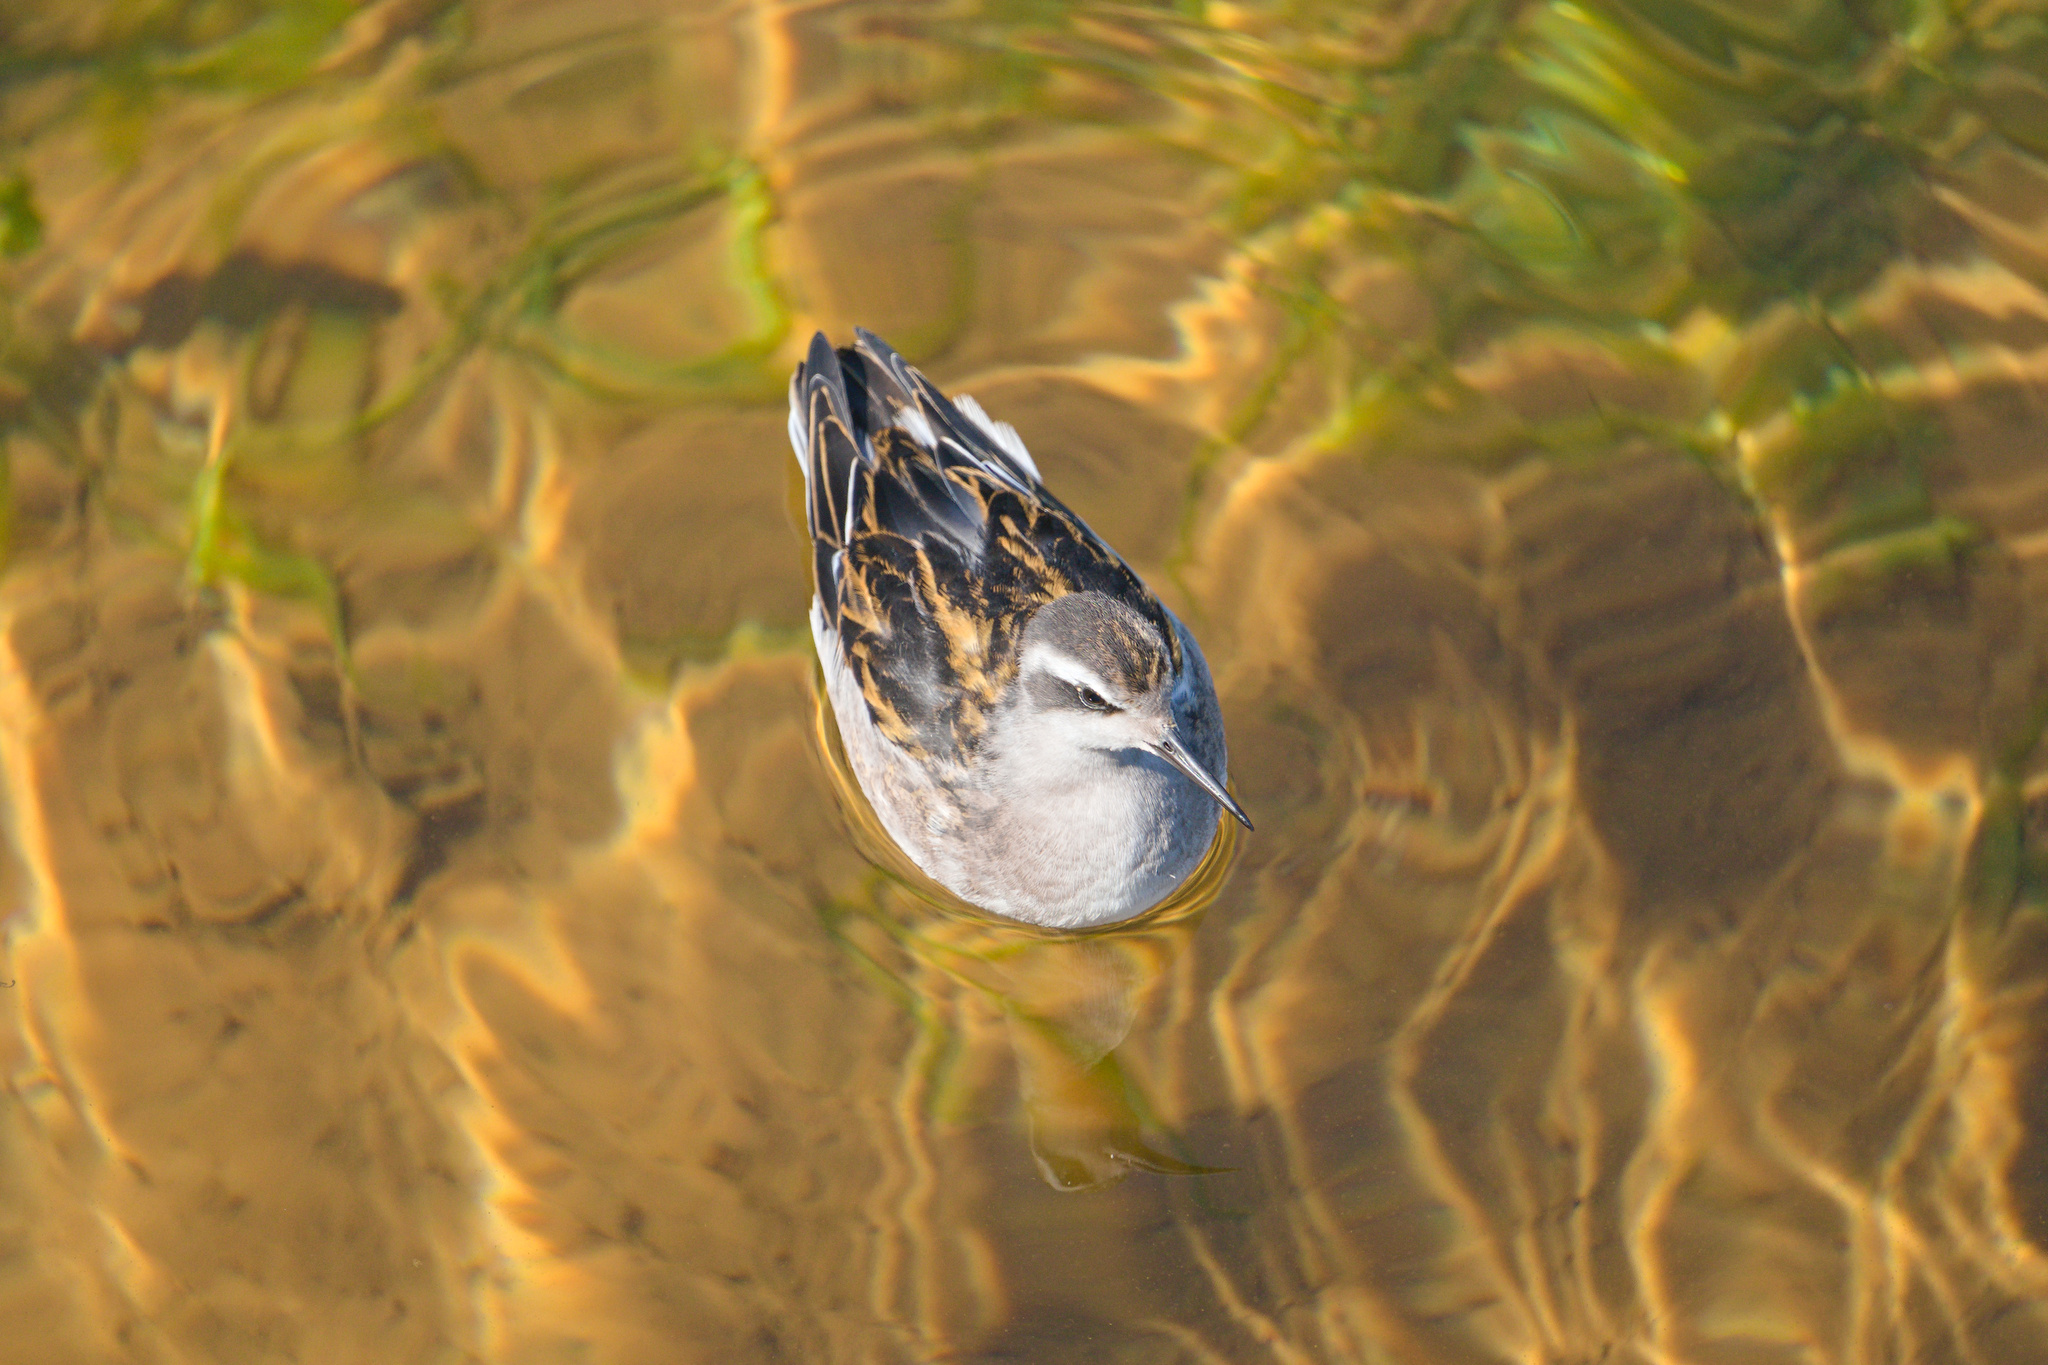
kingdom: Animalia
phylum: Chordata
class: Aves
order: Charadriiformes
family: Scolopacidae
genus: Phalaropus
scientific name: Phalaropus lobatus
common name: Red-necked phalarope
